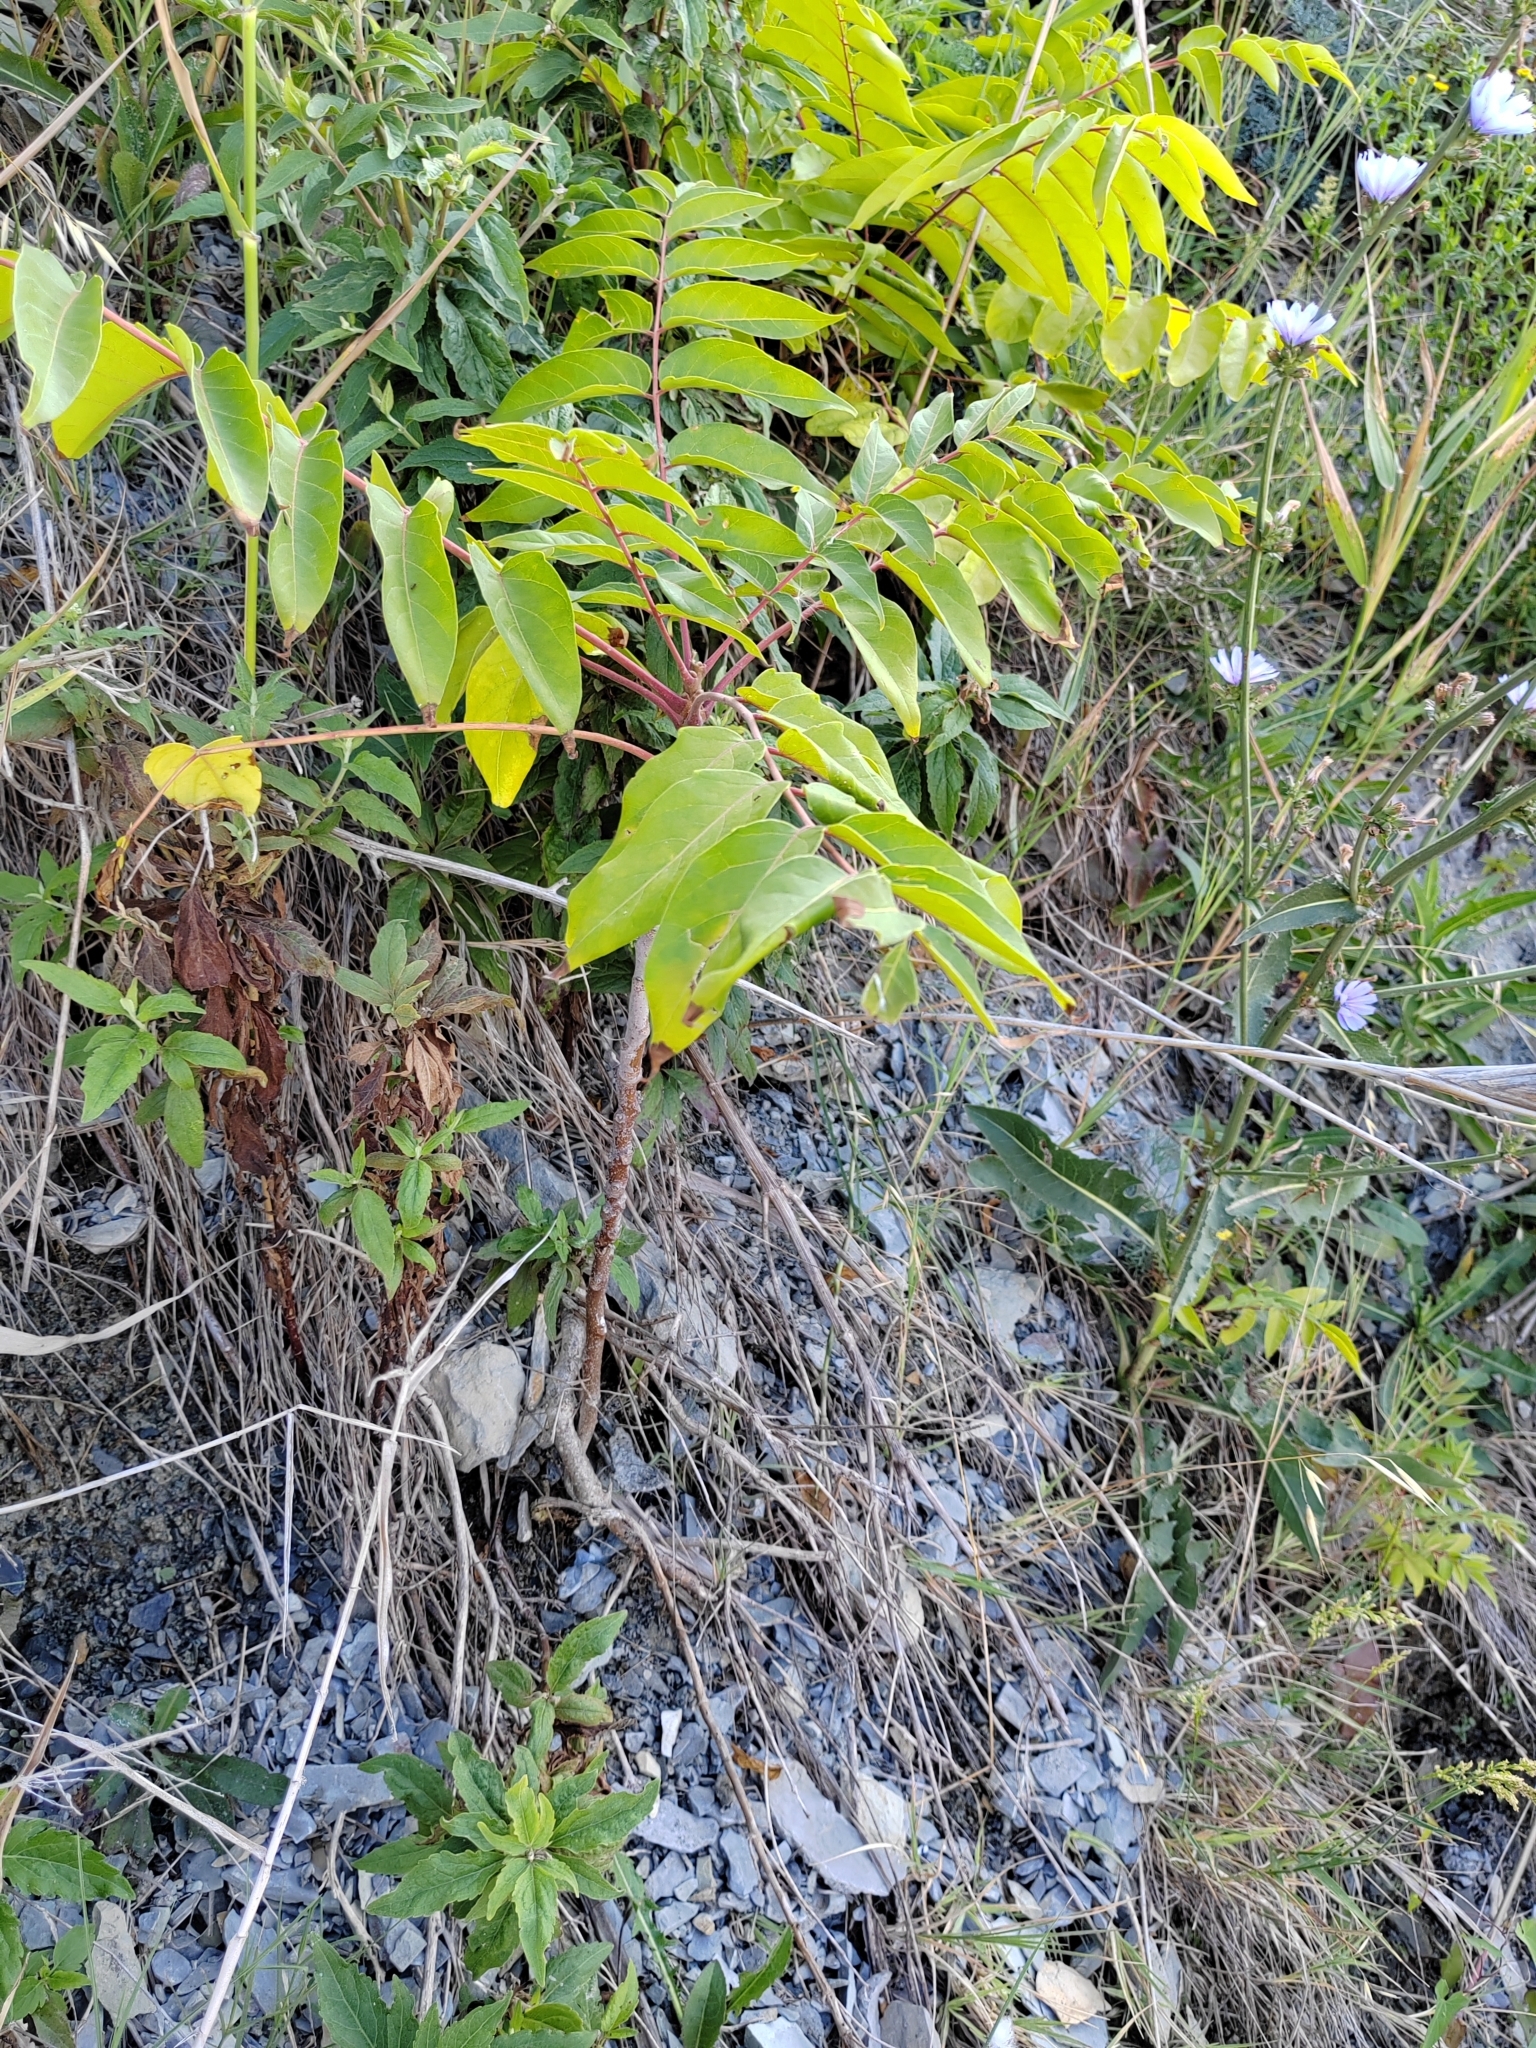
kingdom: Plantae
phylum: Tracheophyta
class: Magnoliopsida
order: Sapindales
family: Simaroubaceae
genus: Ailanthus
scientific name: Ailanthus altissima
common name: Tree-of-heaven
